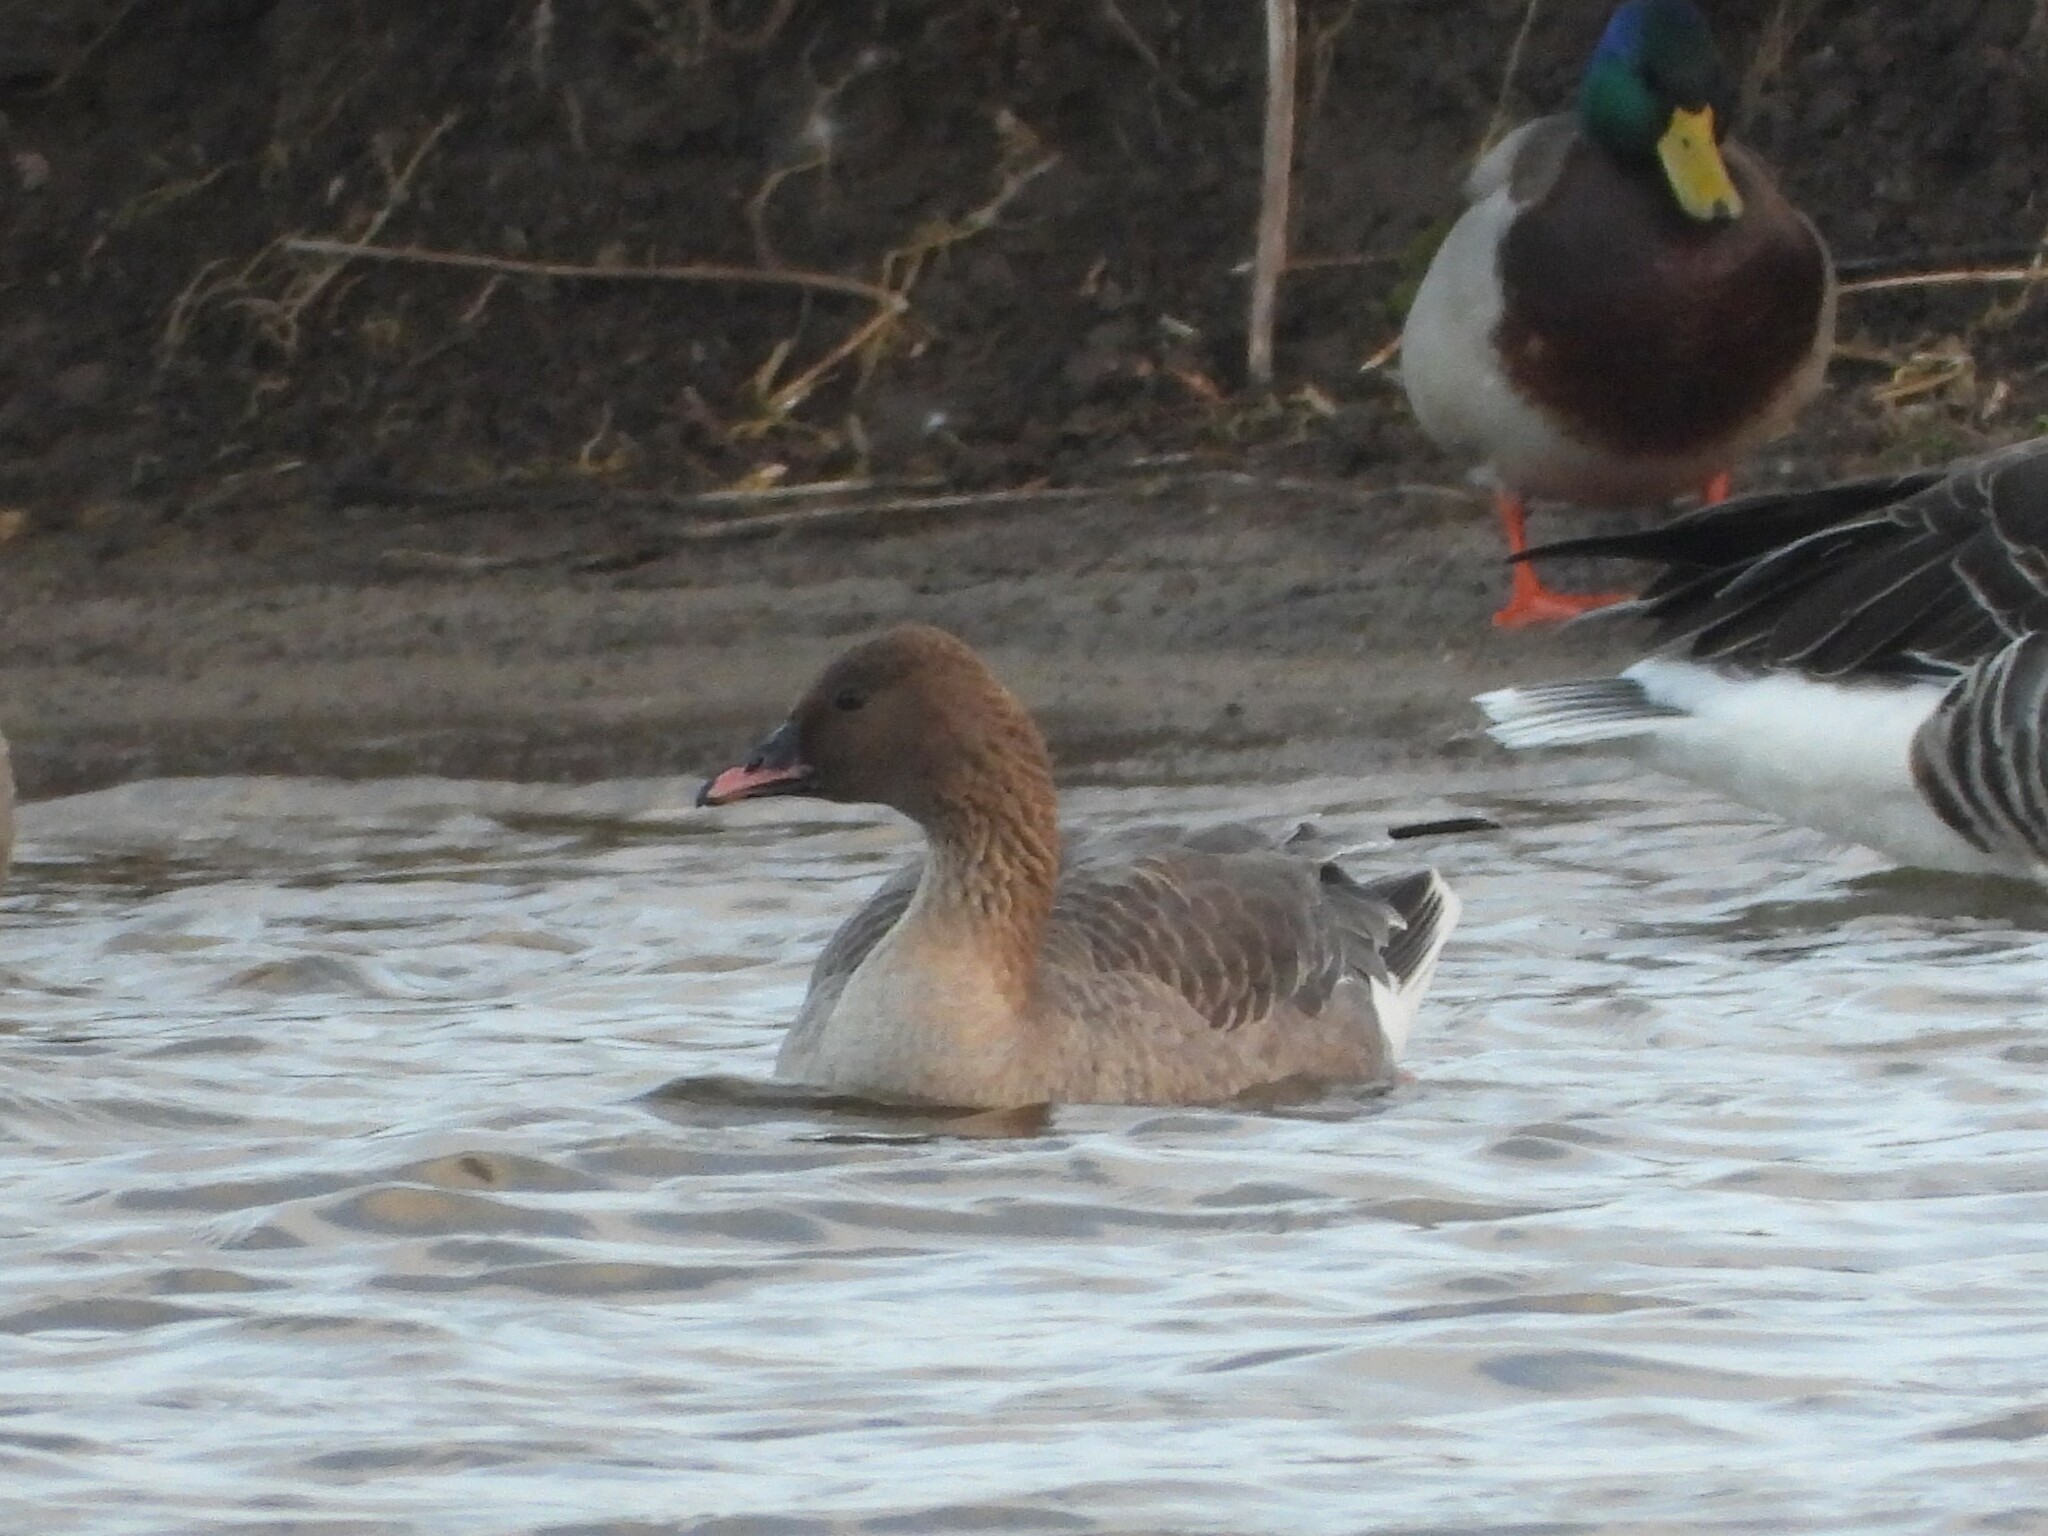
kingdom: Animalia
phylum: Chordata
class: Aves
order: Anseriformes
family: Anatidae
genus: Anser
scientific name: Anser brachyrhynchus
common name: Pink-footed goose
